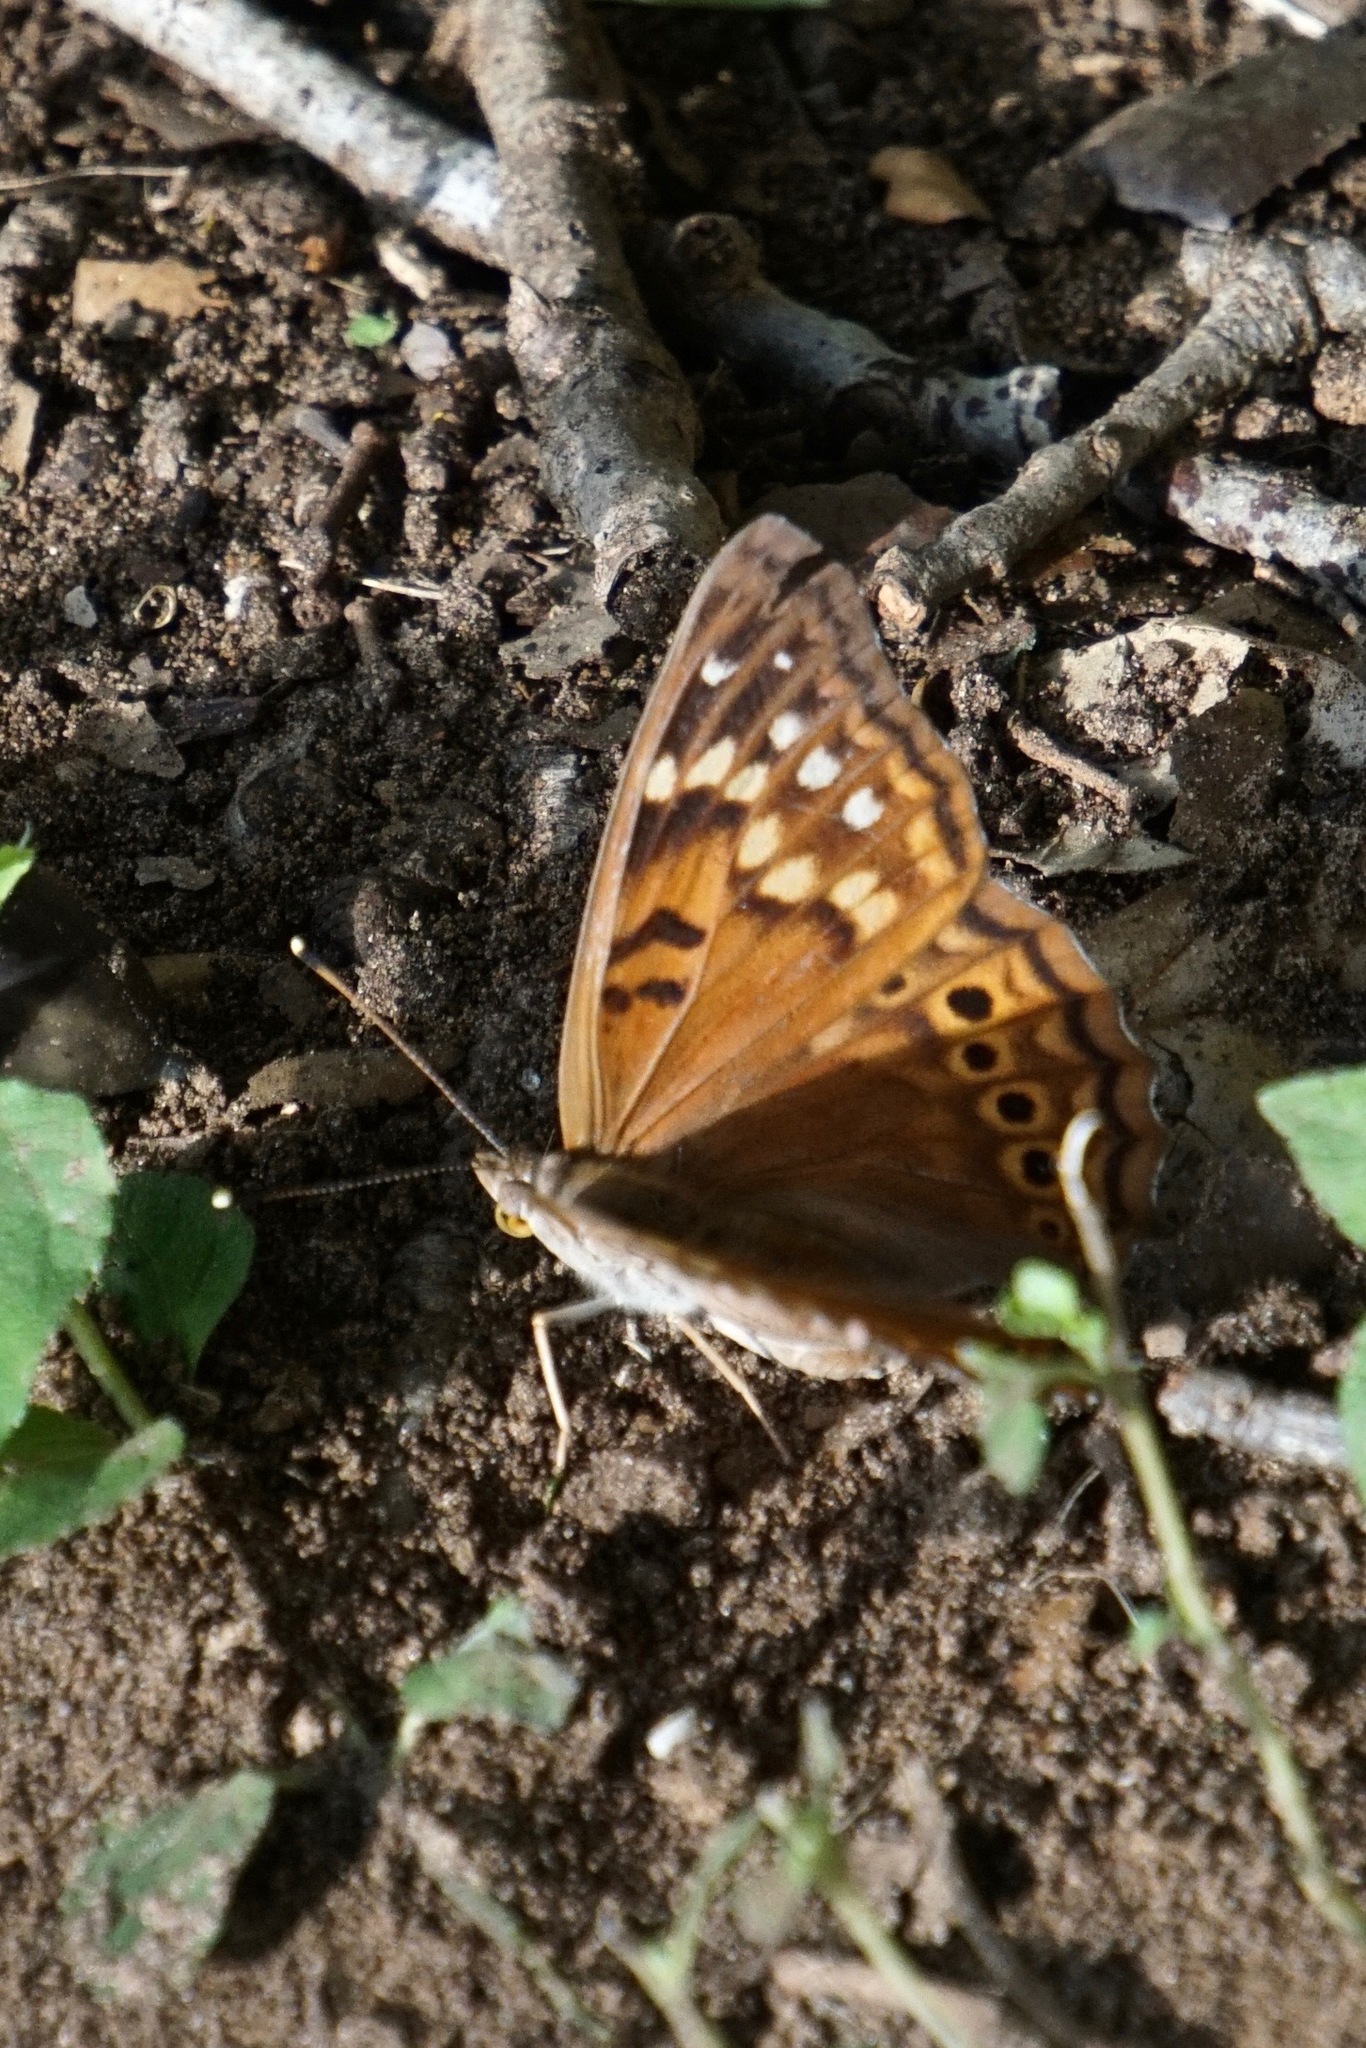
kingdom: Animalia
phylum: Arthropoda
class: Insecta
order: Lepidoptera
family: Nymphalidae
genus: Asterocampa
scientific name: Asterocampa clyton
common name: Tawny emperor
